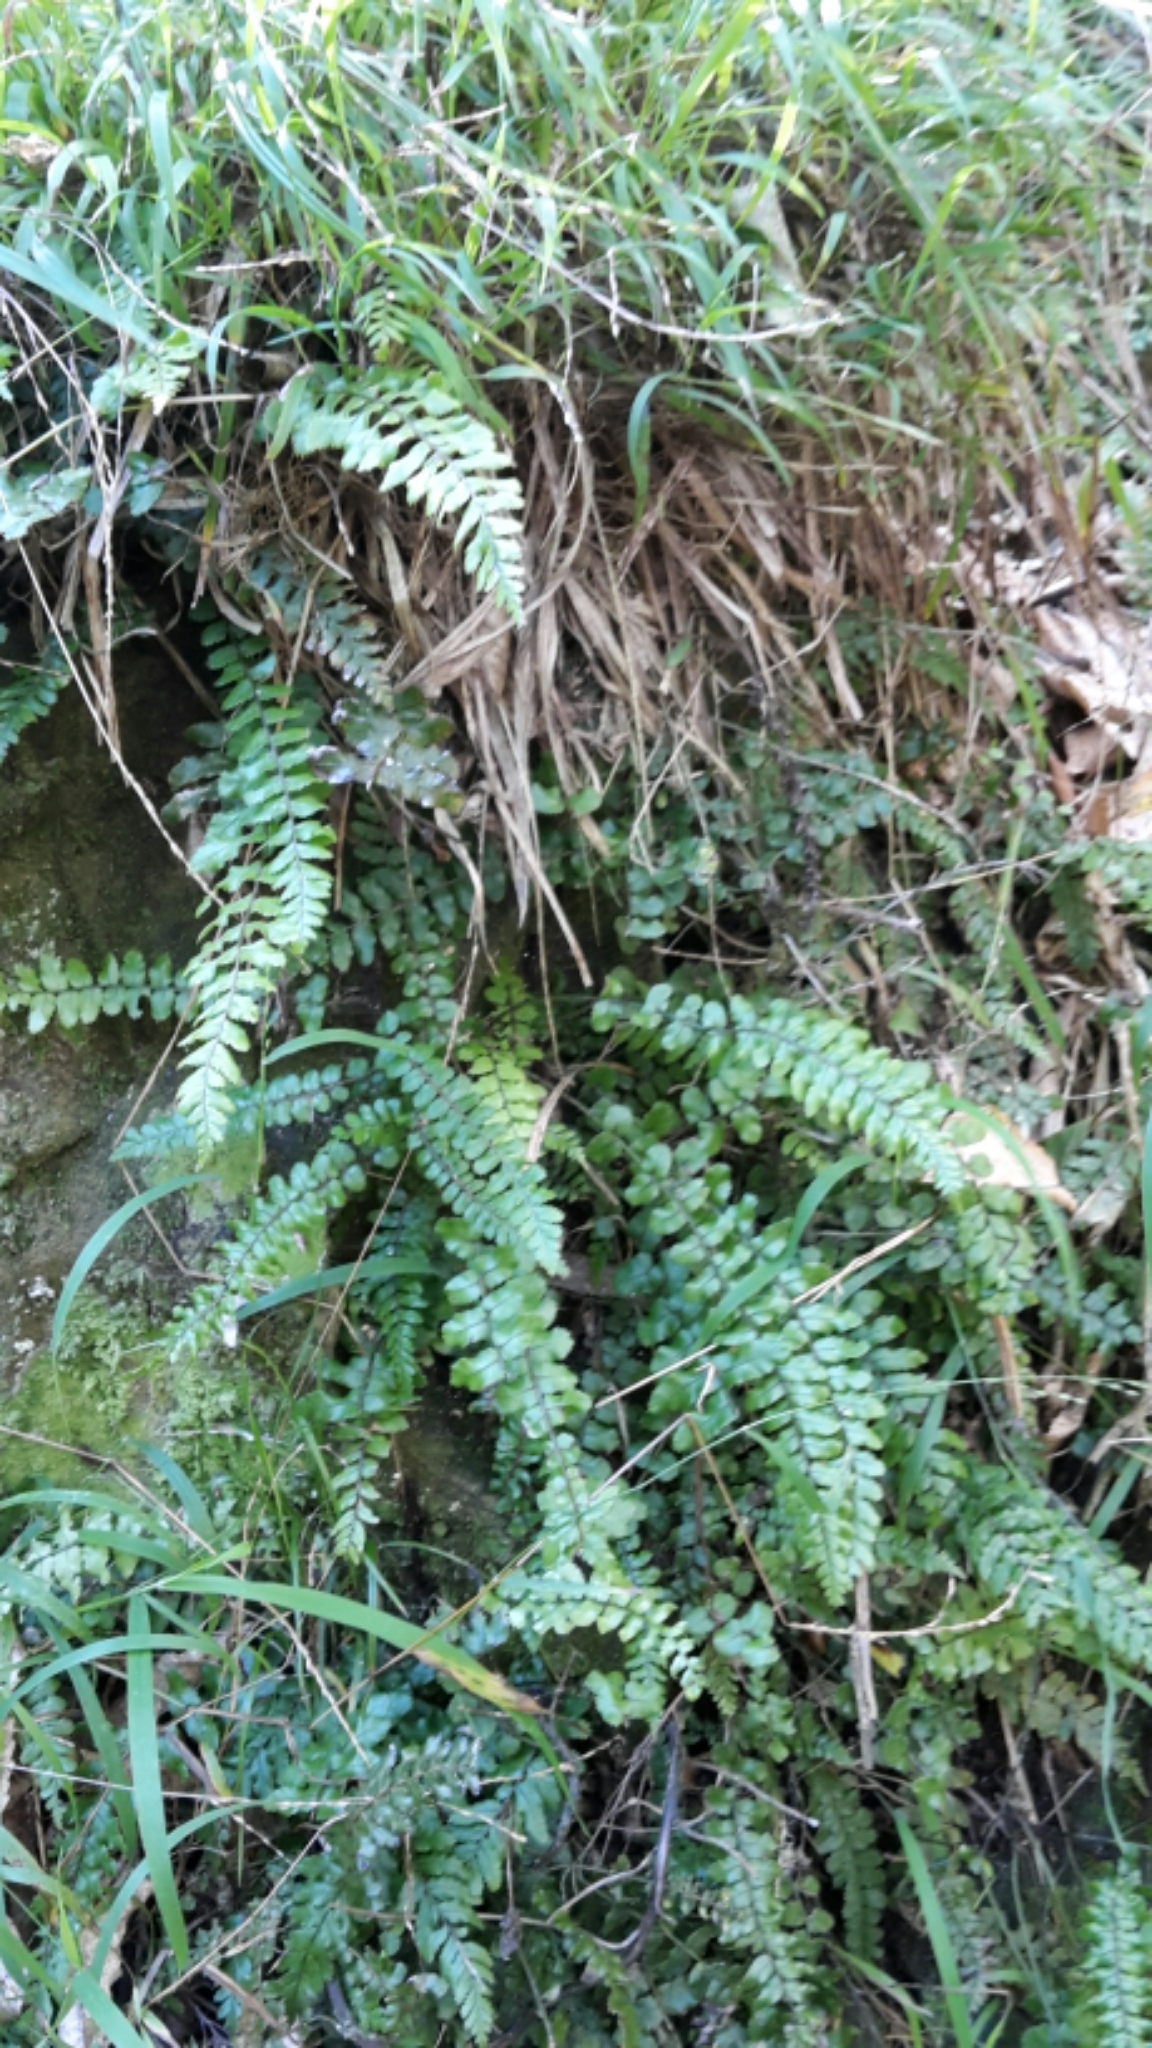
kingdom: Plantae
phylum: Tracheophyta
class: Polypodiopsida
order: Polypodiales
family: Blechnaceae
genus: Icarus
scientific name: Icarus filiformis
